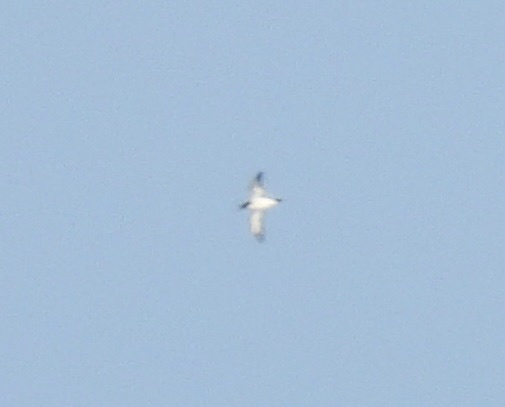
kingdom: Animalia
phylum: Chordata
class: Aves
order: Procellariiformes
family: Procellariidae
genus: Puffinus
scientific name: Puffinus newelli
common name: Newell's shearwater
